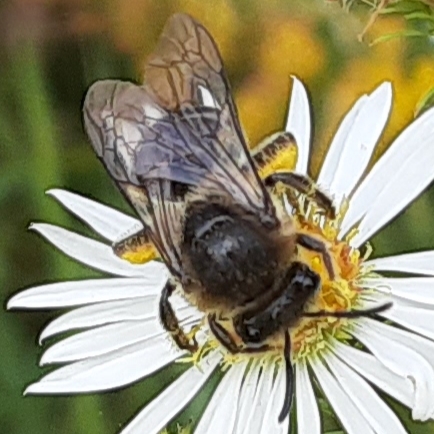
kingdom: Animalia
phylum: Arthropoda
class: Insecta
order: Hymenoptera
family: Colletidae
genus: Colletes
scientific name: Colletes compactus
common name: Aster cellophane bee
